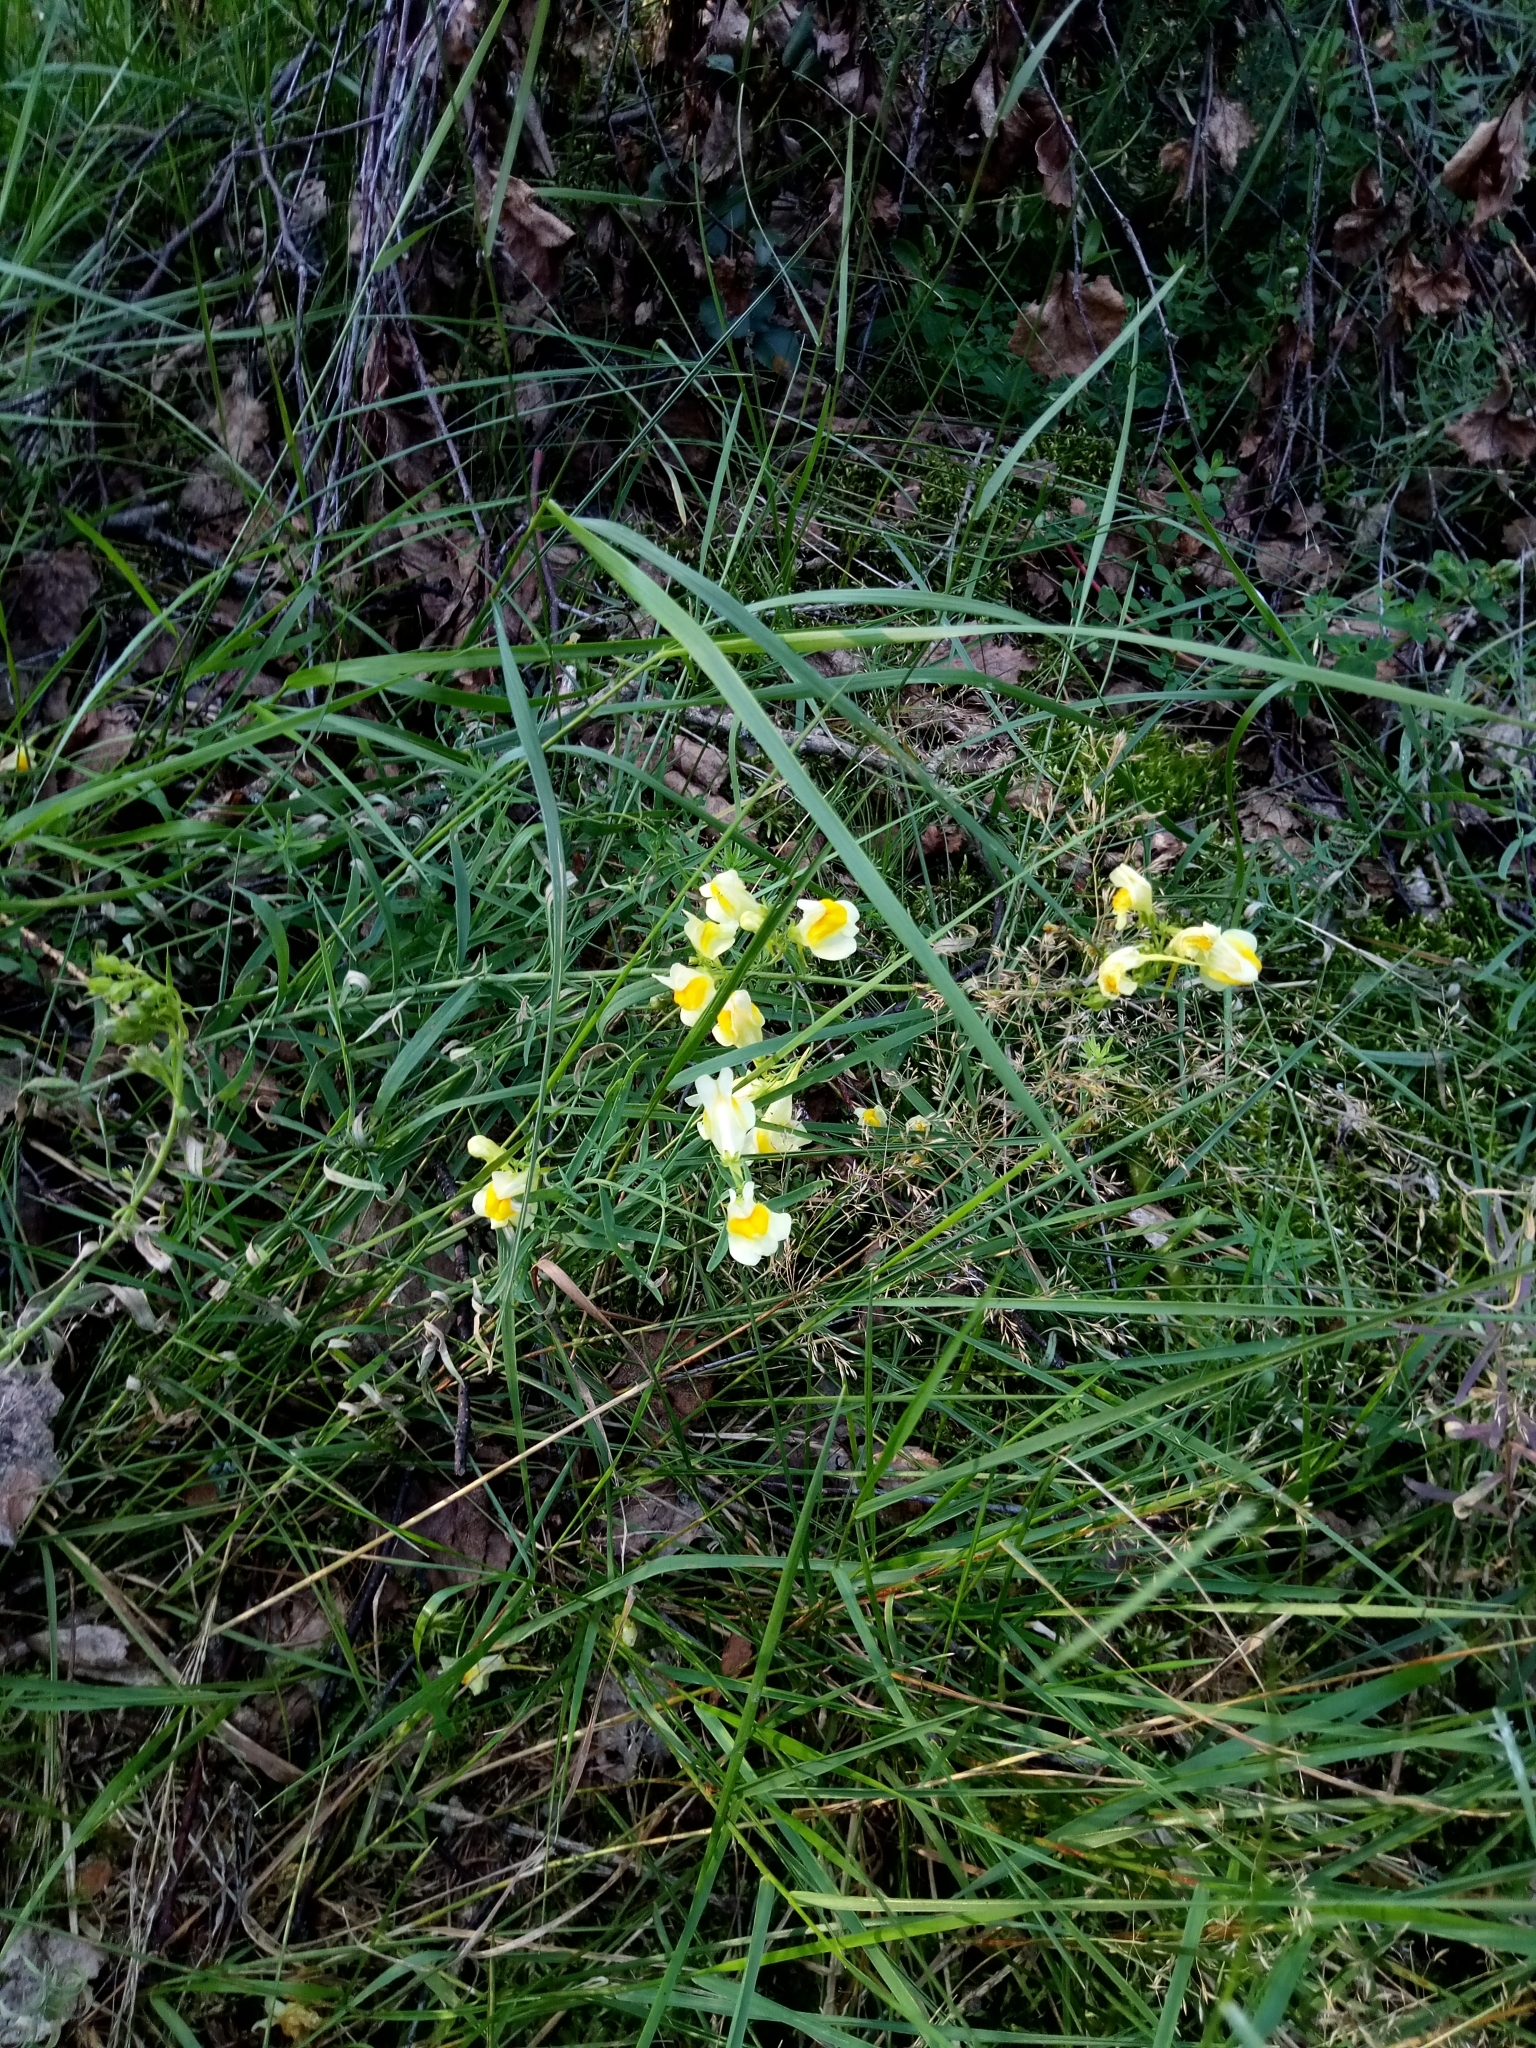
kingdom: Plantae
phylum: Tracheophyta
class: Magnoliopsida
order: Lamiales
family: Plantaginaceae
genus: Linaria
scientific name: Linaria vulgaris
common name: Butter and eggs
